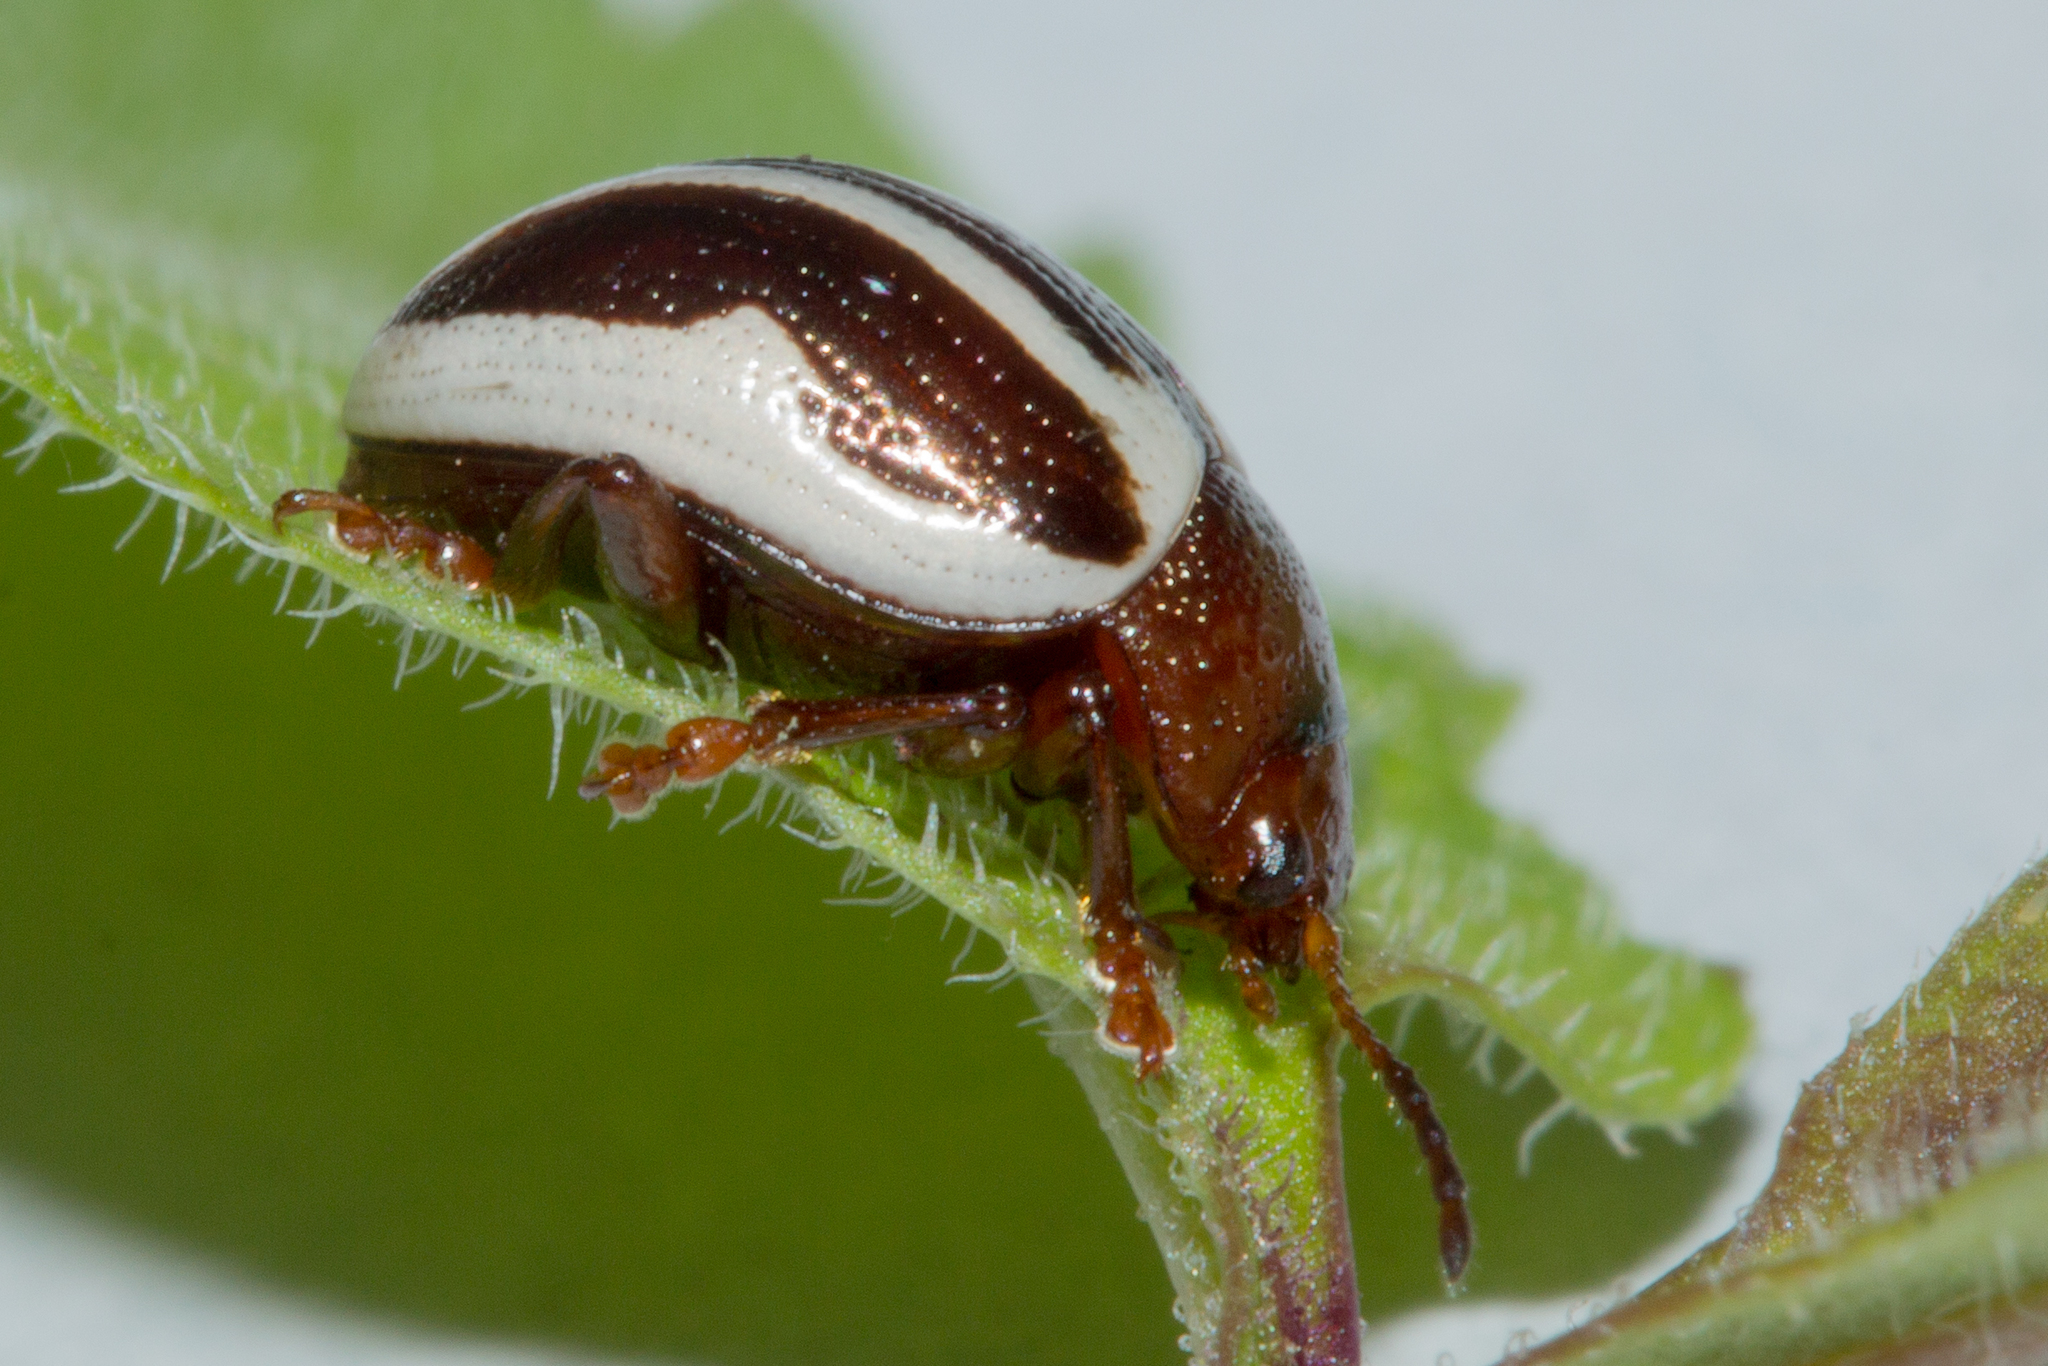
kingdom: Animalia
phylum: Arthropoda
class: Insecta
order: Coleoptera
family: Chrysomelidae
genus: Calligrapha
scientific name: Calligrapha bidenticola
